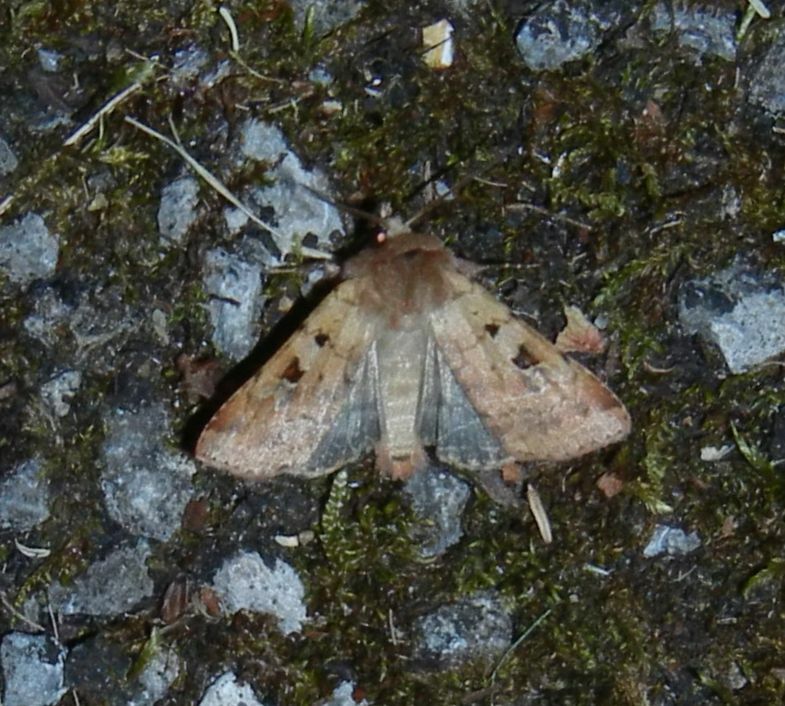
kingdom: Animalia
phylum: Arthropoda
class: Insecta
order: Lepidoptera
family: Noctuidae
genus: Diarsia
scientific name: Diarsia mendica
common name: Ingrailed clay
